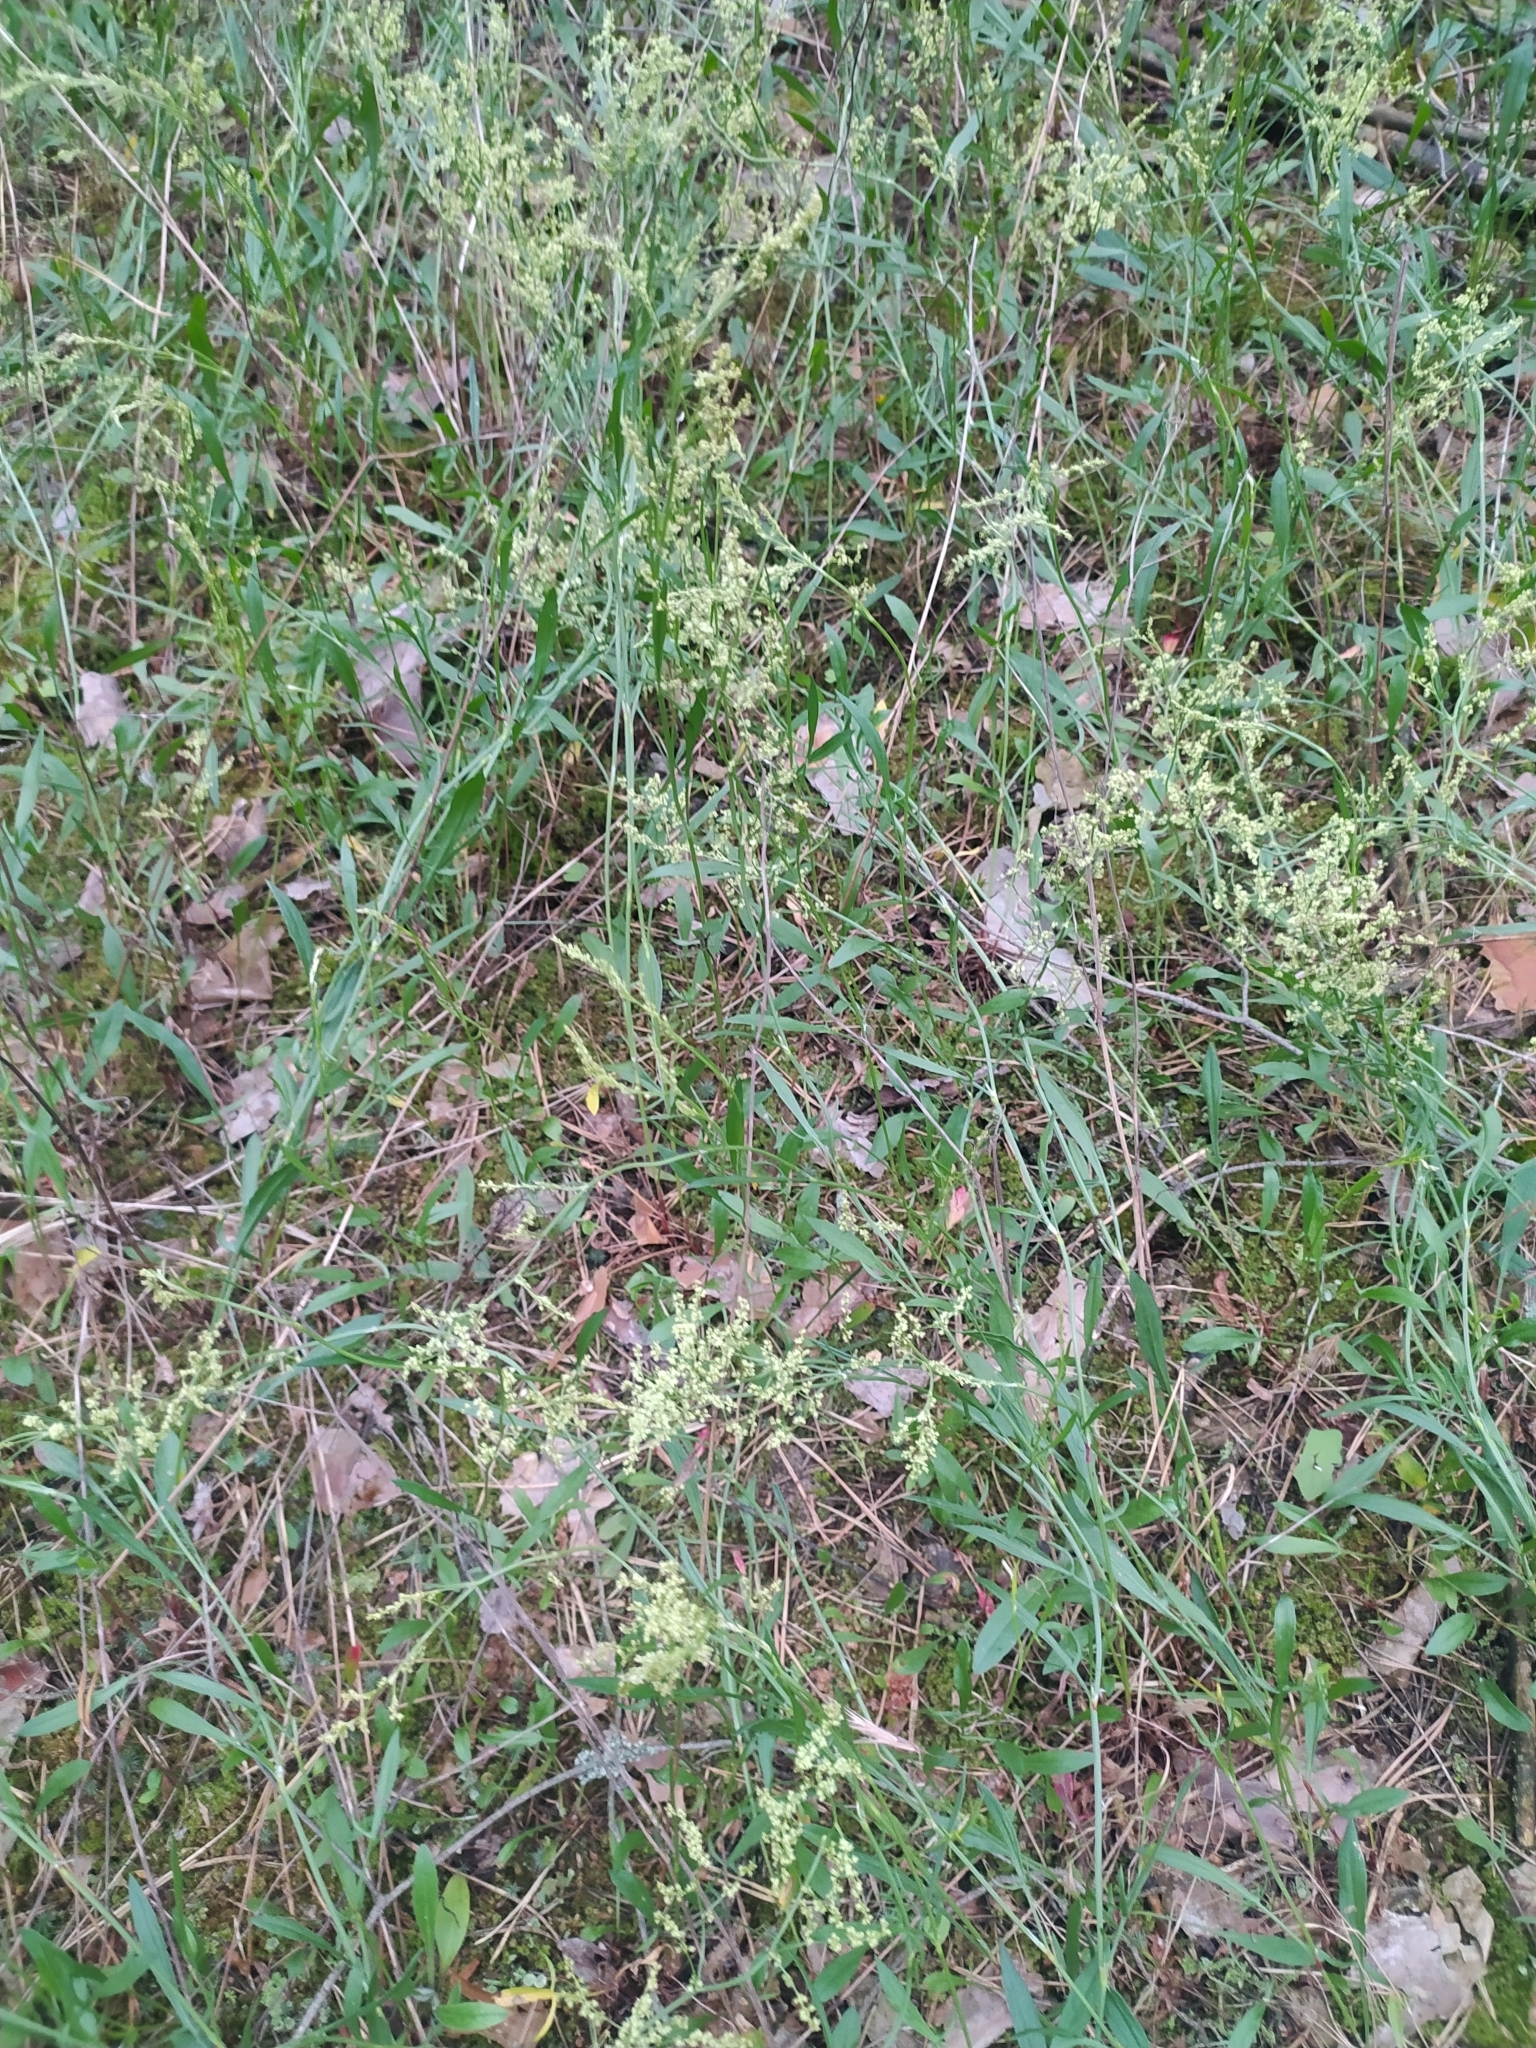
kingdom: Plantae
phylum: Tracheophyta
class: Magnoliopsida
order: Caryophyllales
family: Polygonaceae
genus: Rumex
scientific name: Rumex acetosella
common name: Common sheep sorrel
